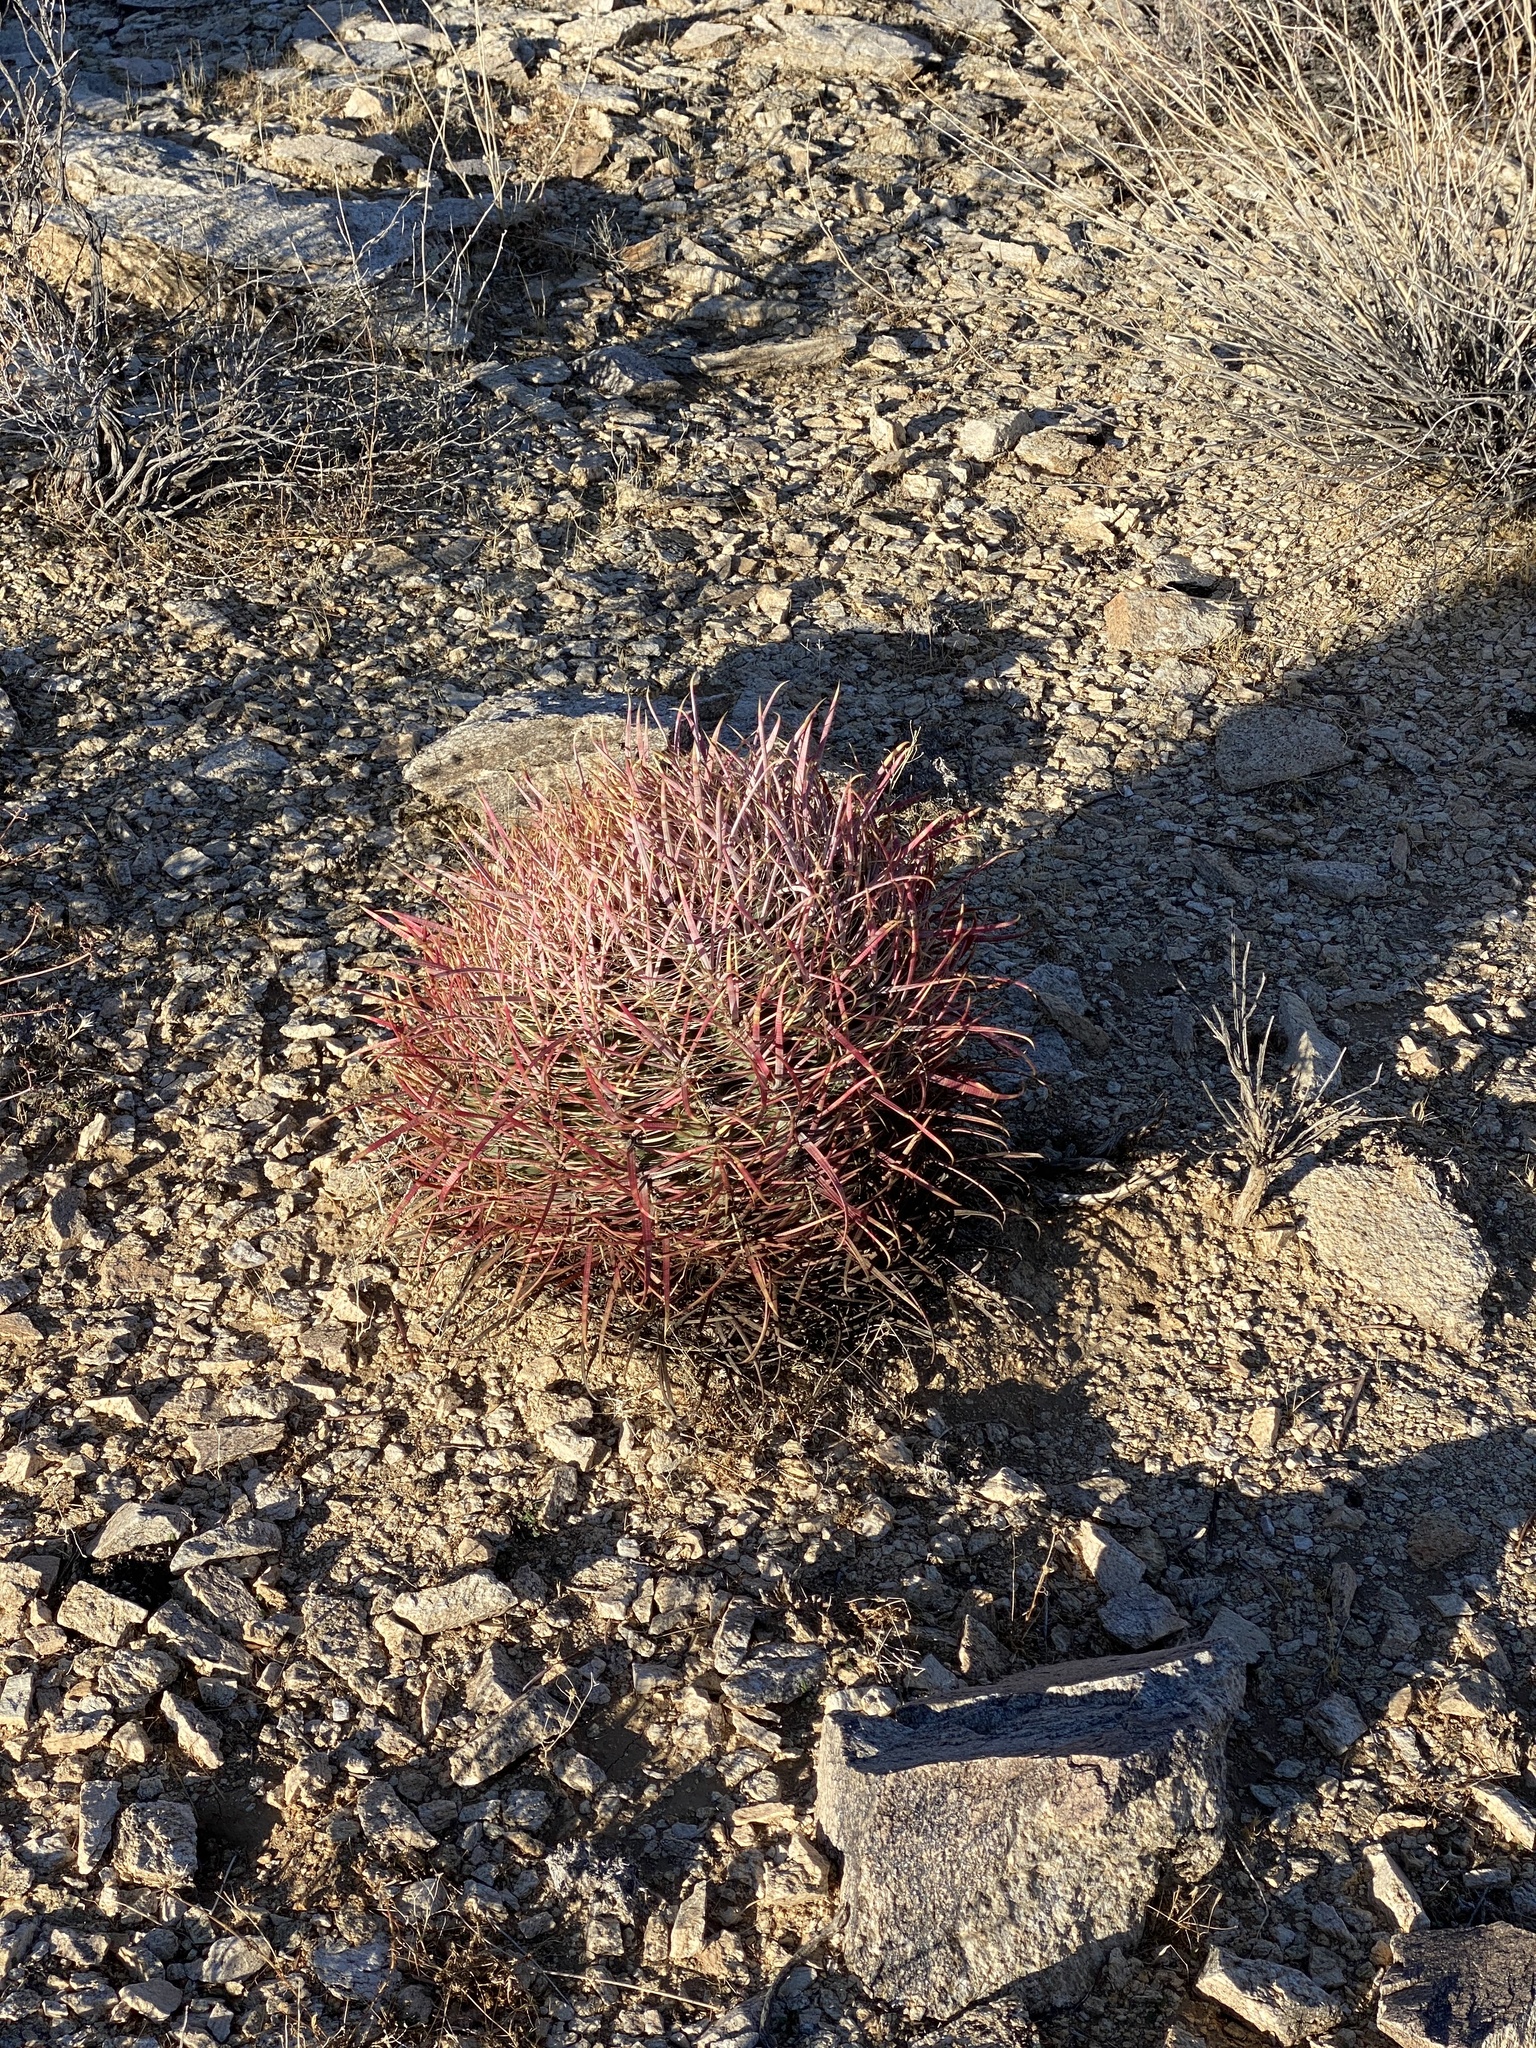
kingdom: Plantae
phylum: Tracheophyta
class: Magnoliopsida
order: Caryophyllales
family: Cactaceae
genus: Ferocactus
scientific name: Ferocactus cylindraceus
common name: California barrel cactus
